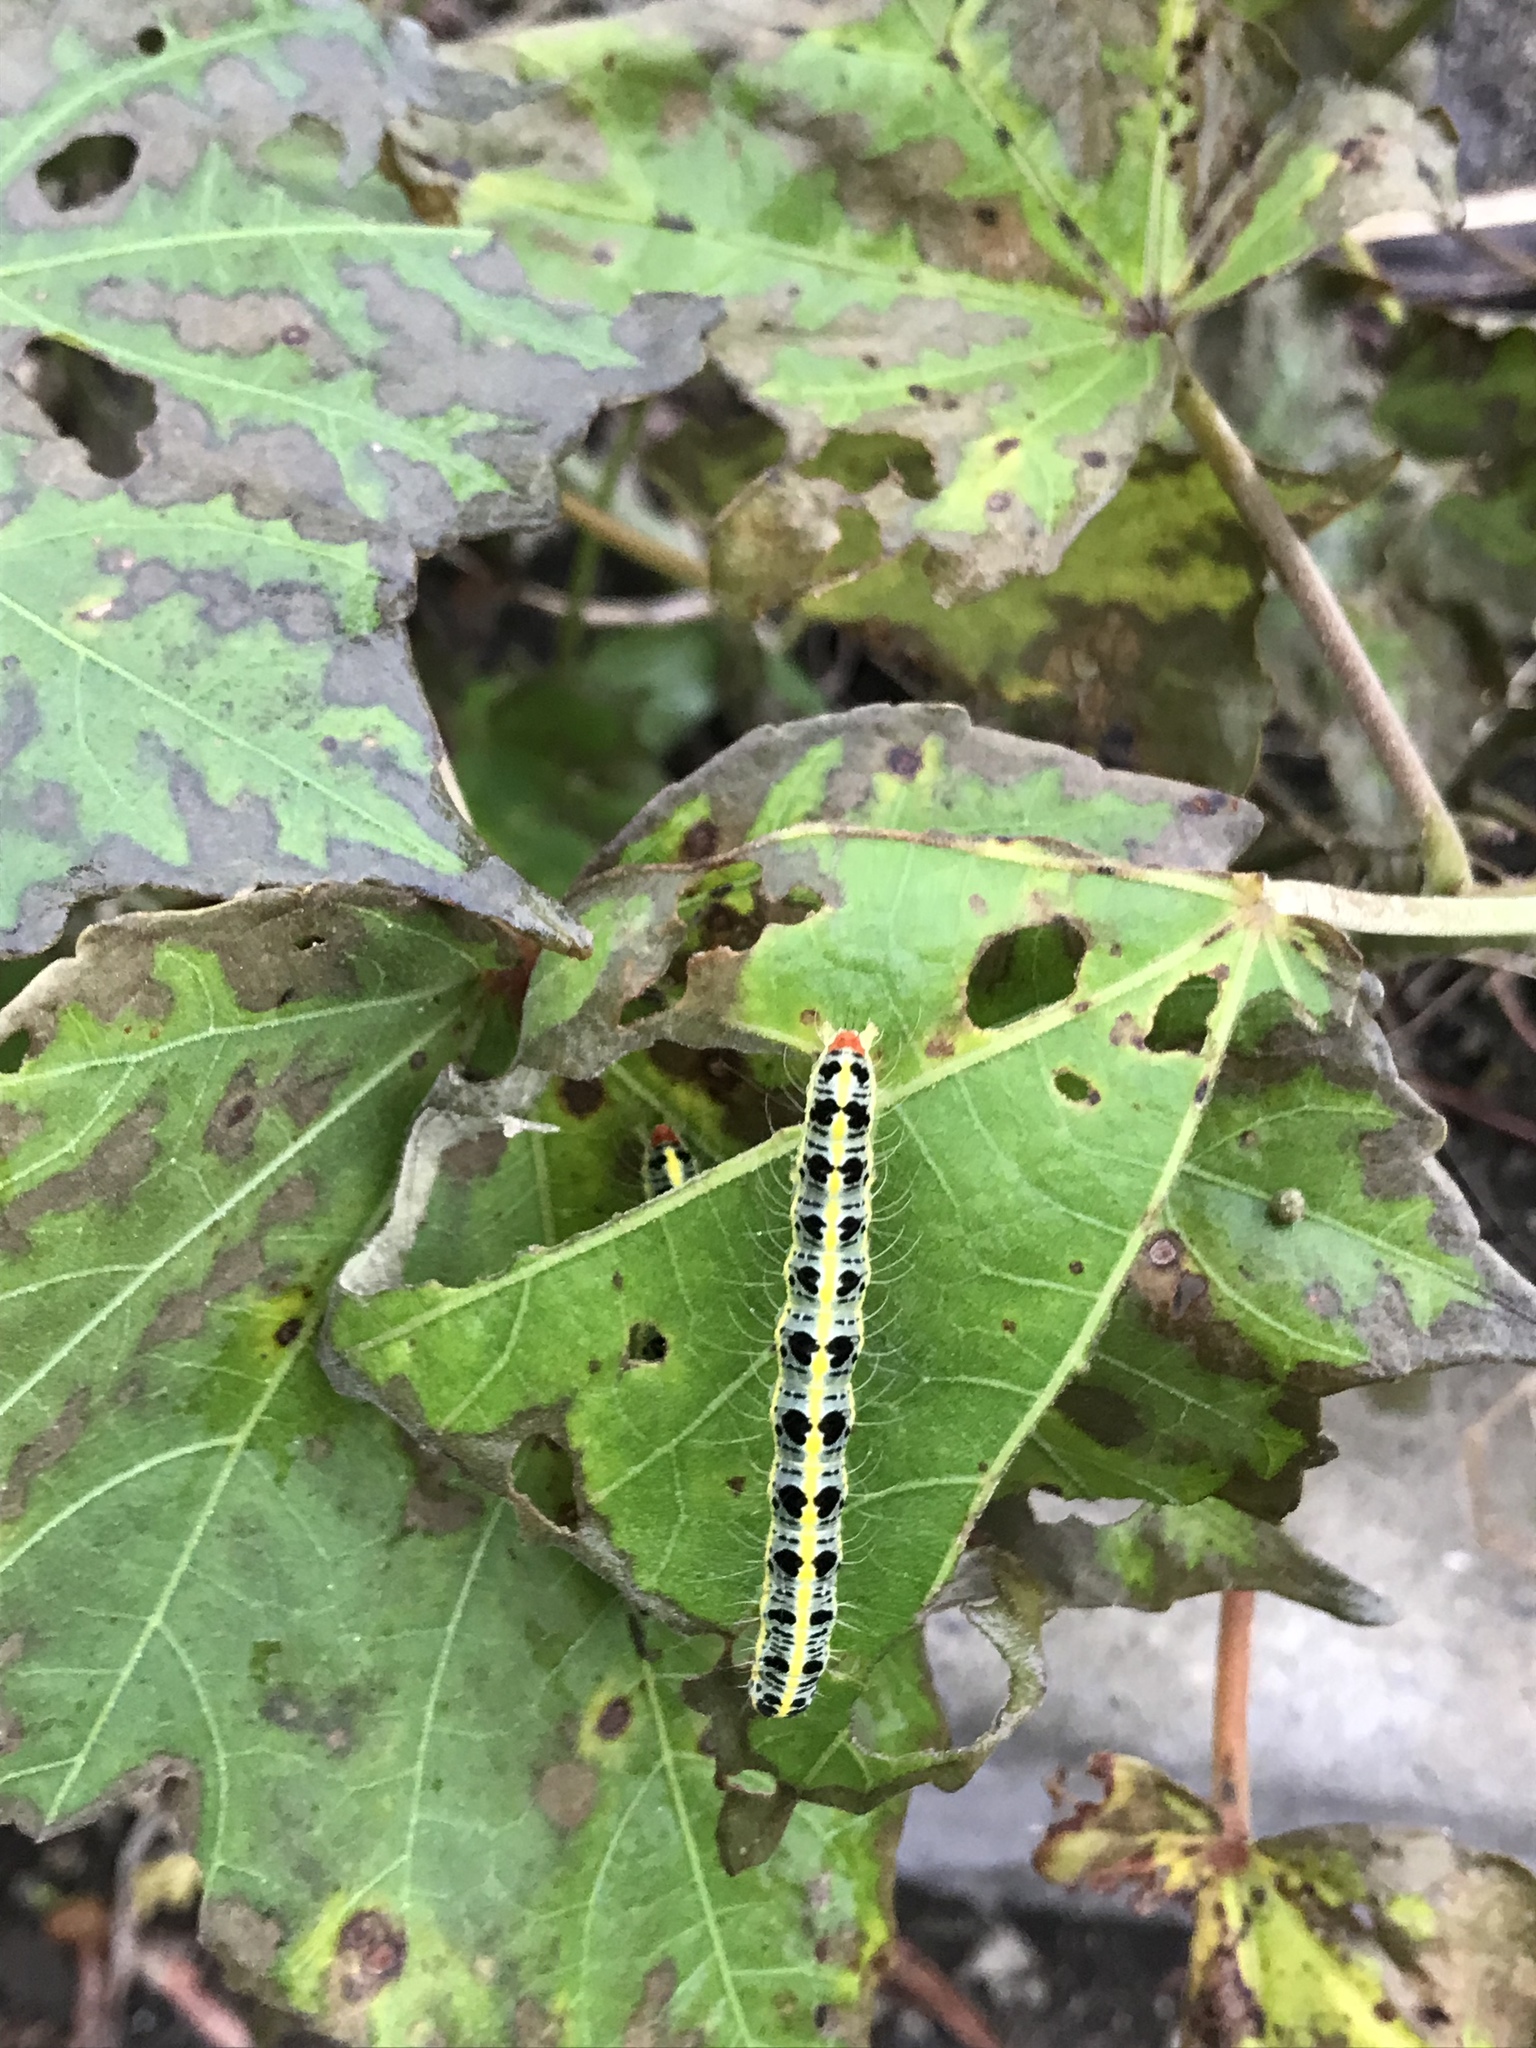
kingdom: Animalia
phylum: Arthropoda
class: Insecta
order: Lepidoptera
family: Nolidae
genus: Xanthodes
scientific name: Xanthodes transversa
